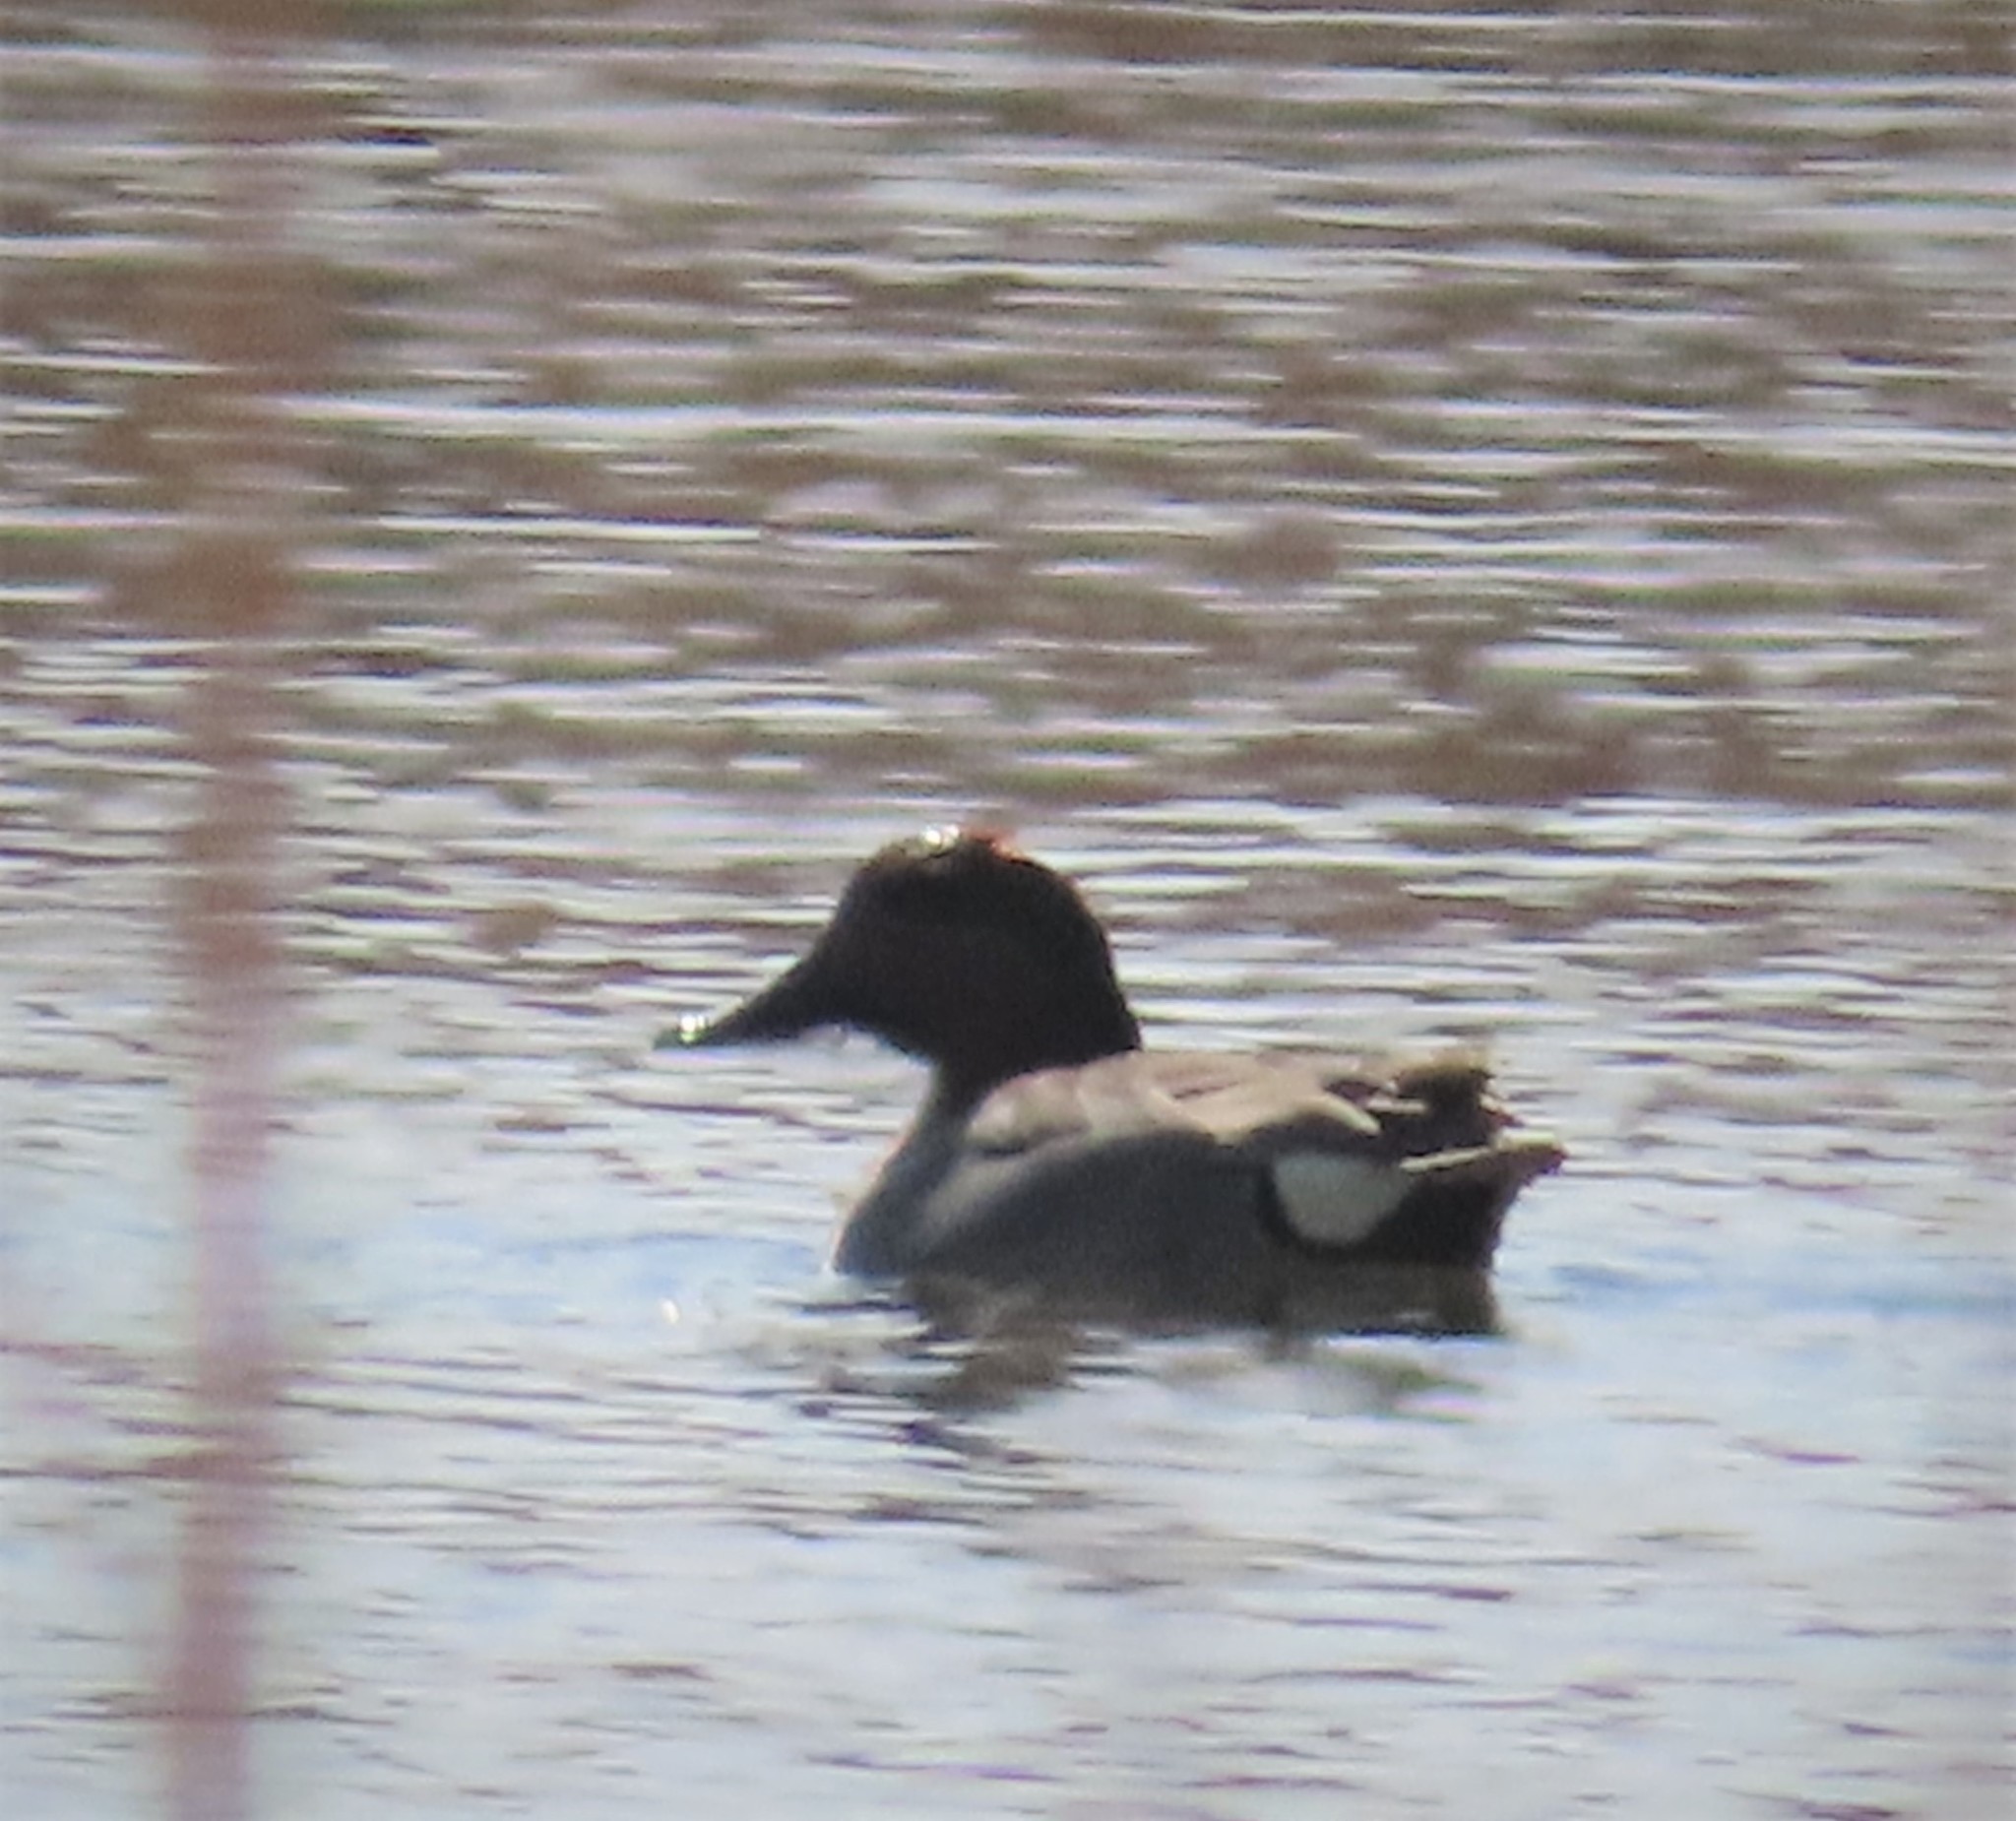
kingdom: Animalia
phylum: Chordata
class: Aves
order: Anseriformes
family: Anatidae
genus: Anas
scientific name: Anas crecca
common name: Eurasian teal
